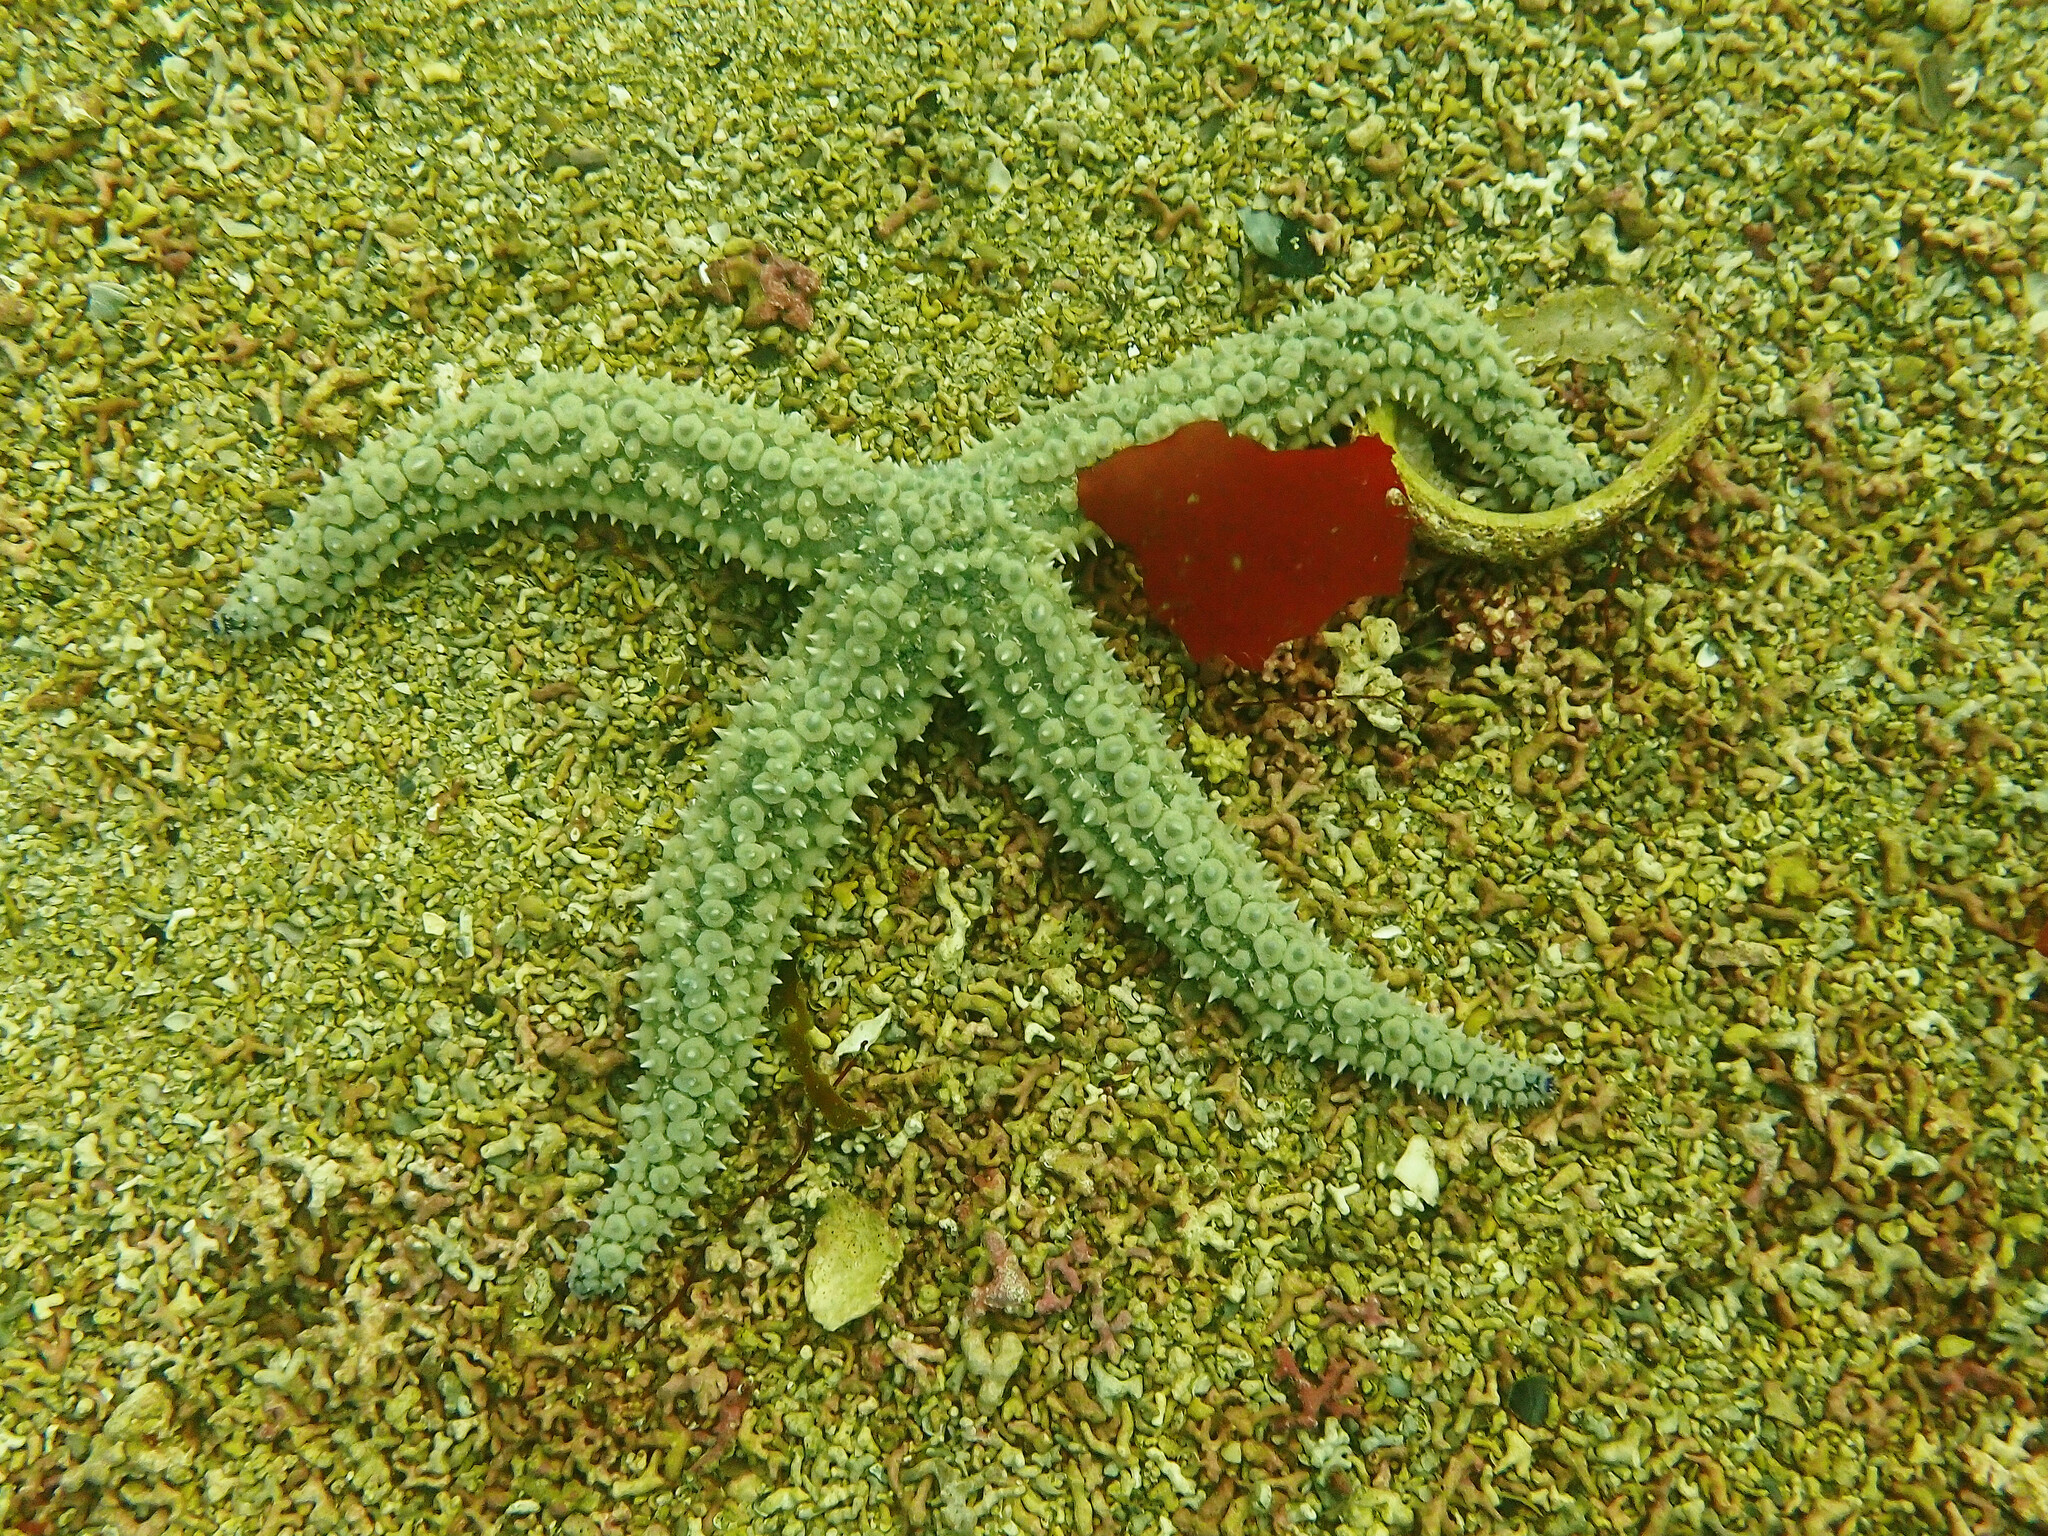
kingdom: Animalia
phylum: Echinodermata
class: Asteroidea
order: Forcipulatida
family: Asteriidae
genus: Marthasterias
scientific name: Marthasterias glacialis
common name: Spiny starfish
